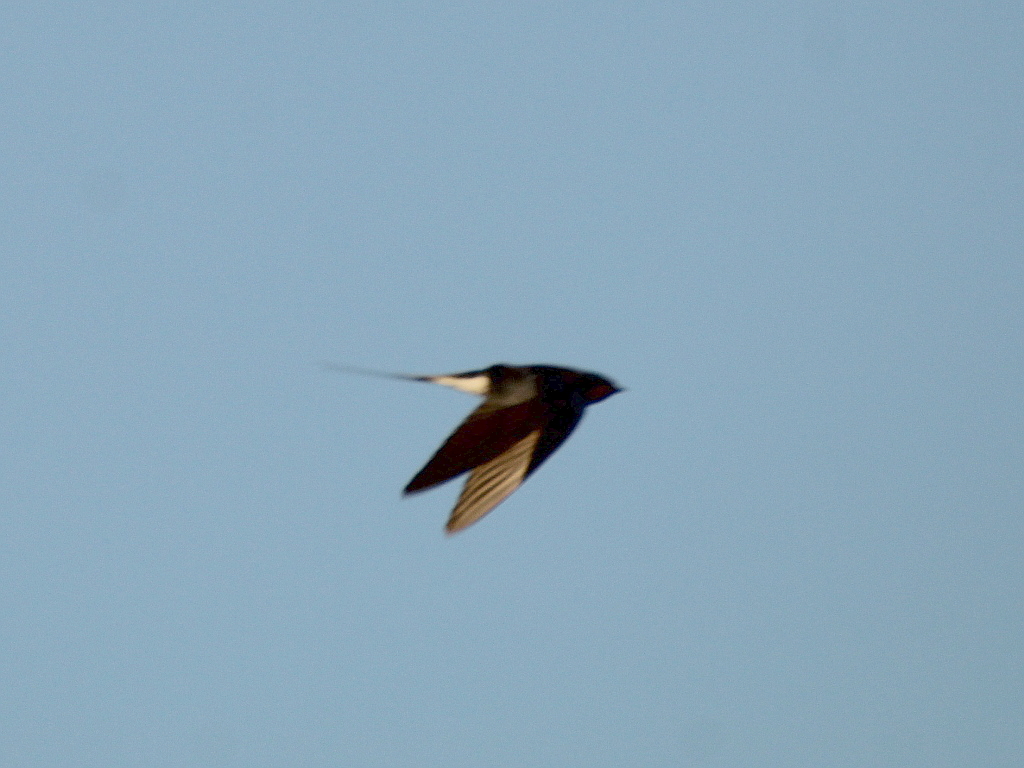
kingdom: Animalia
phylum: Chordata
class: Aves
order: Passeriformes
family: Hirundinidae
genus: Hirundo
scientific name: Hirundo rustica
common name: Barn swallow
